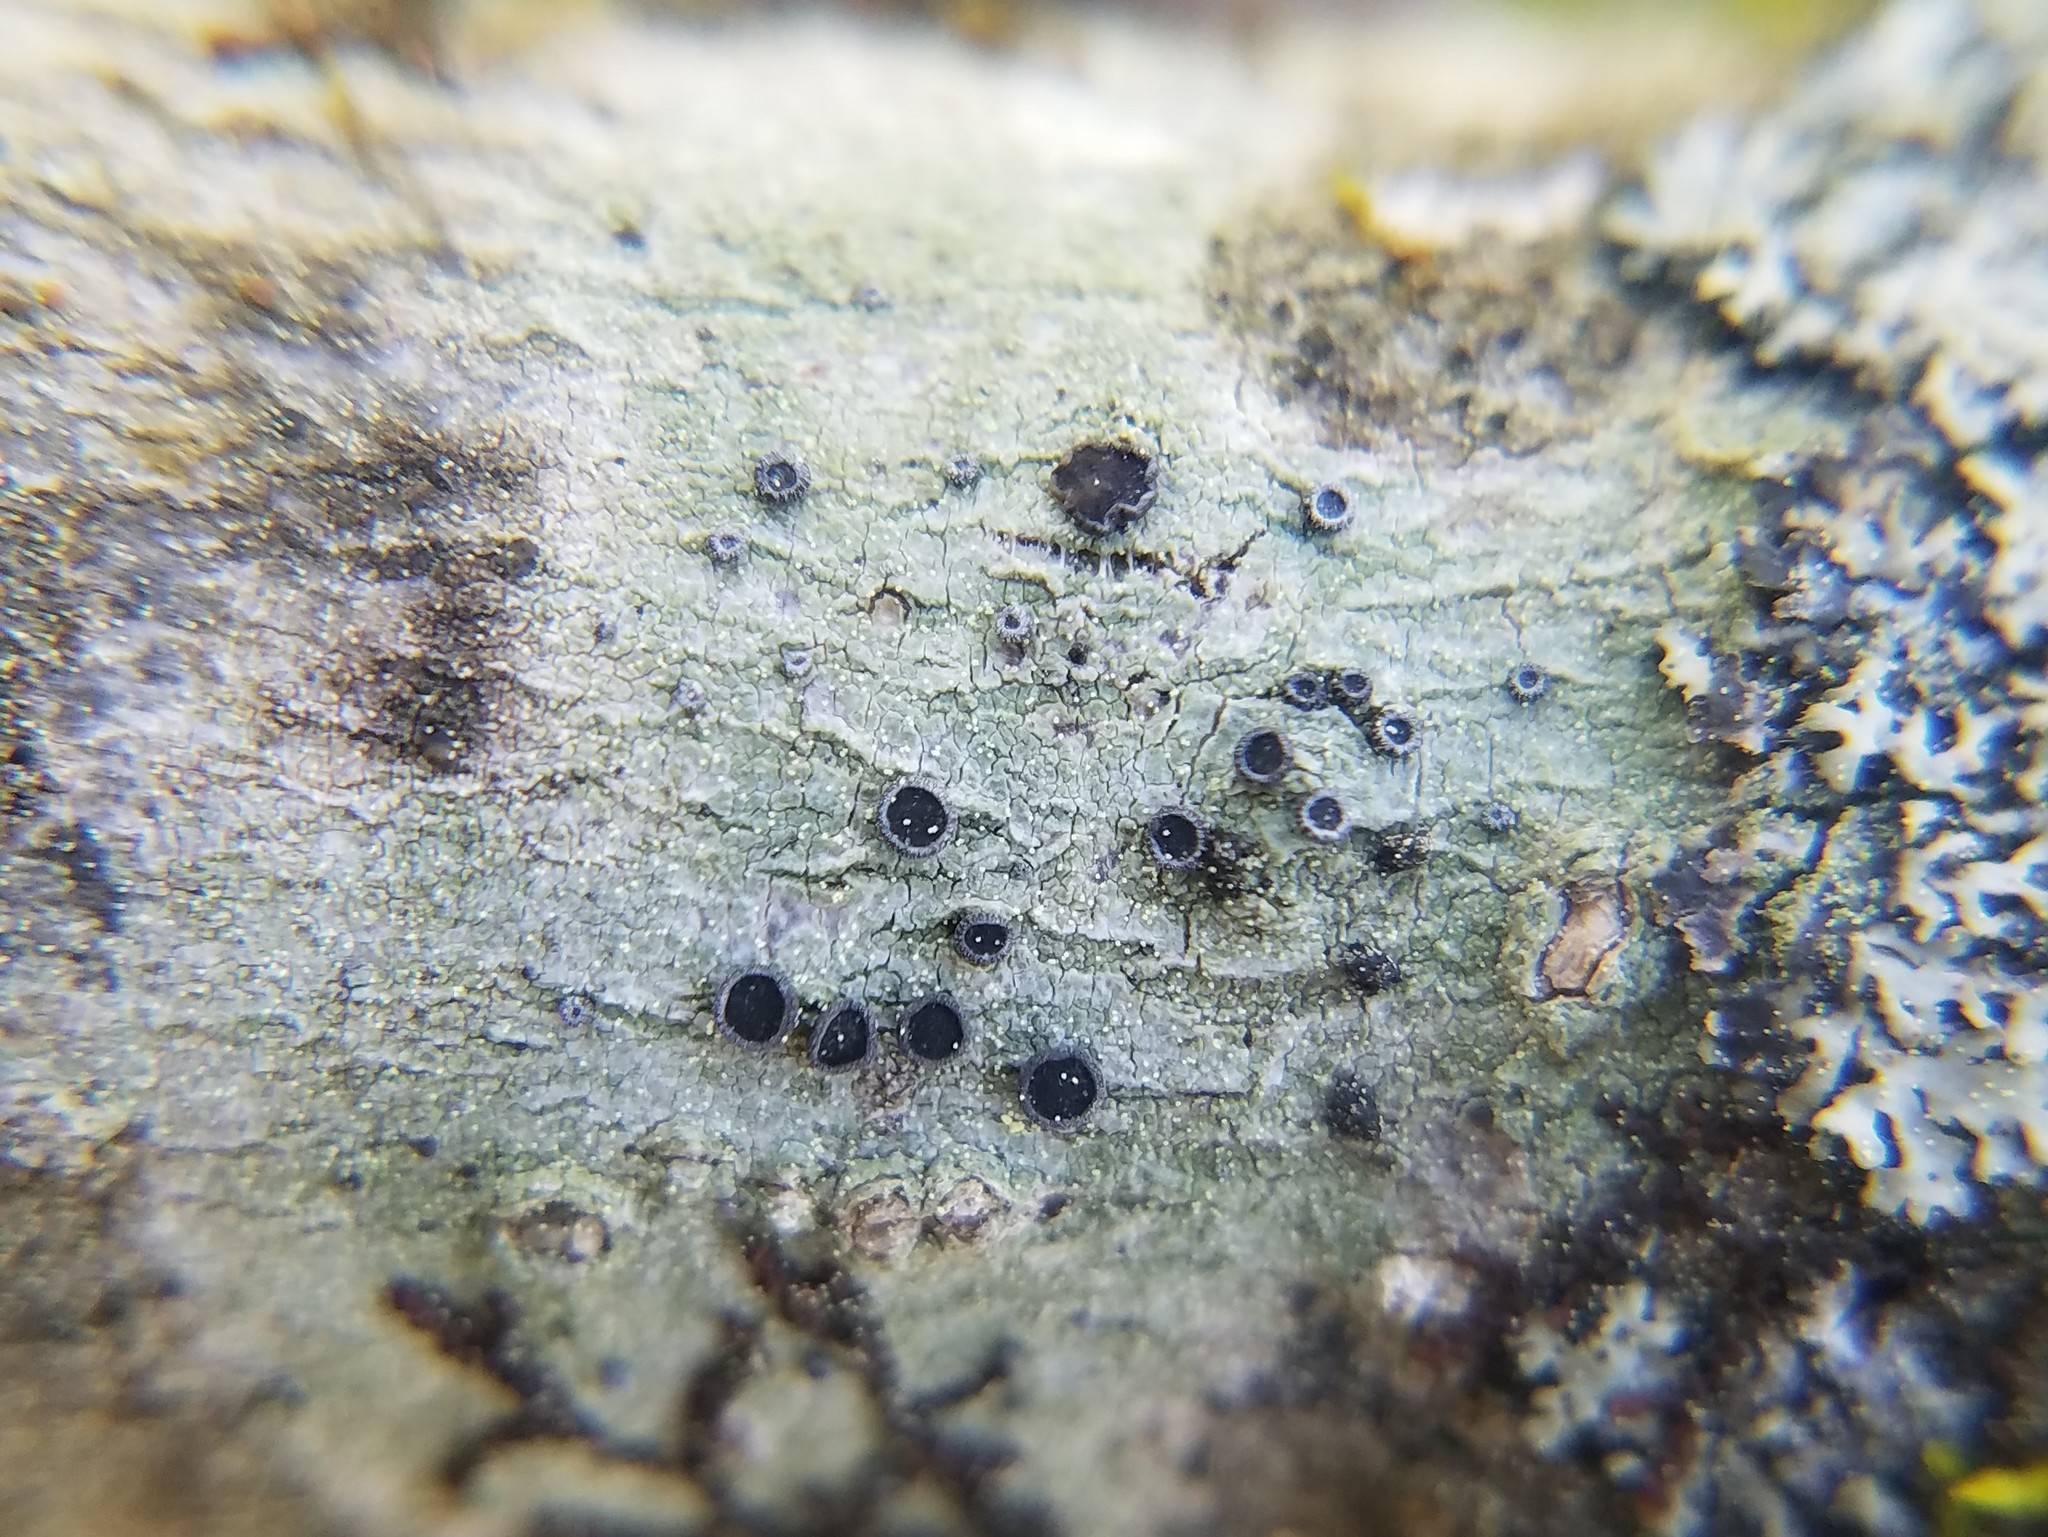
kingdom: Fungi
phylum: Ascomycota
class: Lecanoromycetes
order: Lecanorales
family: Ramalinaceae
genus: Bacidia
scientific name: Bacidia suffusa
